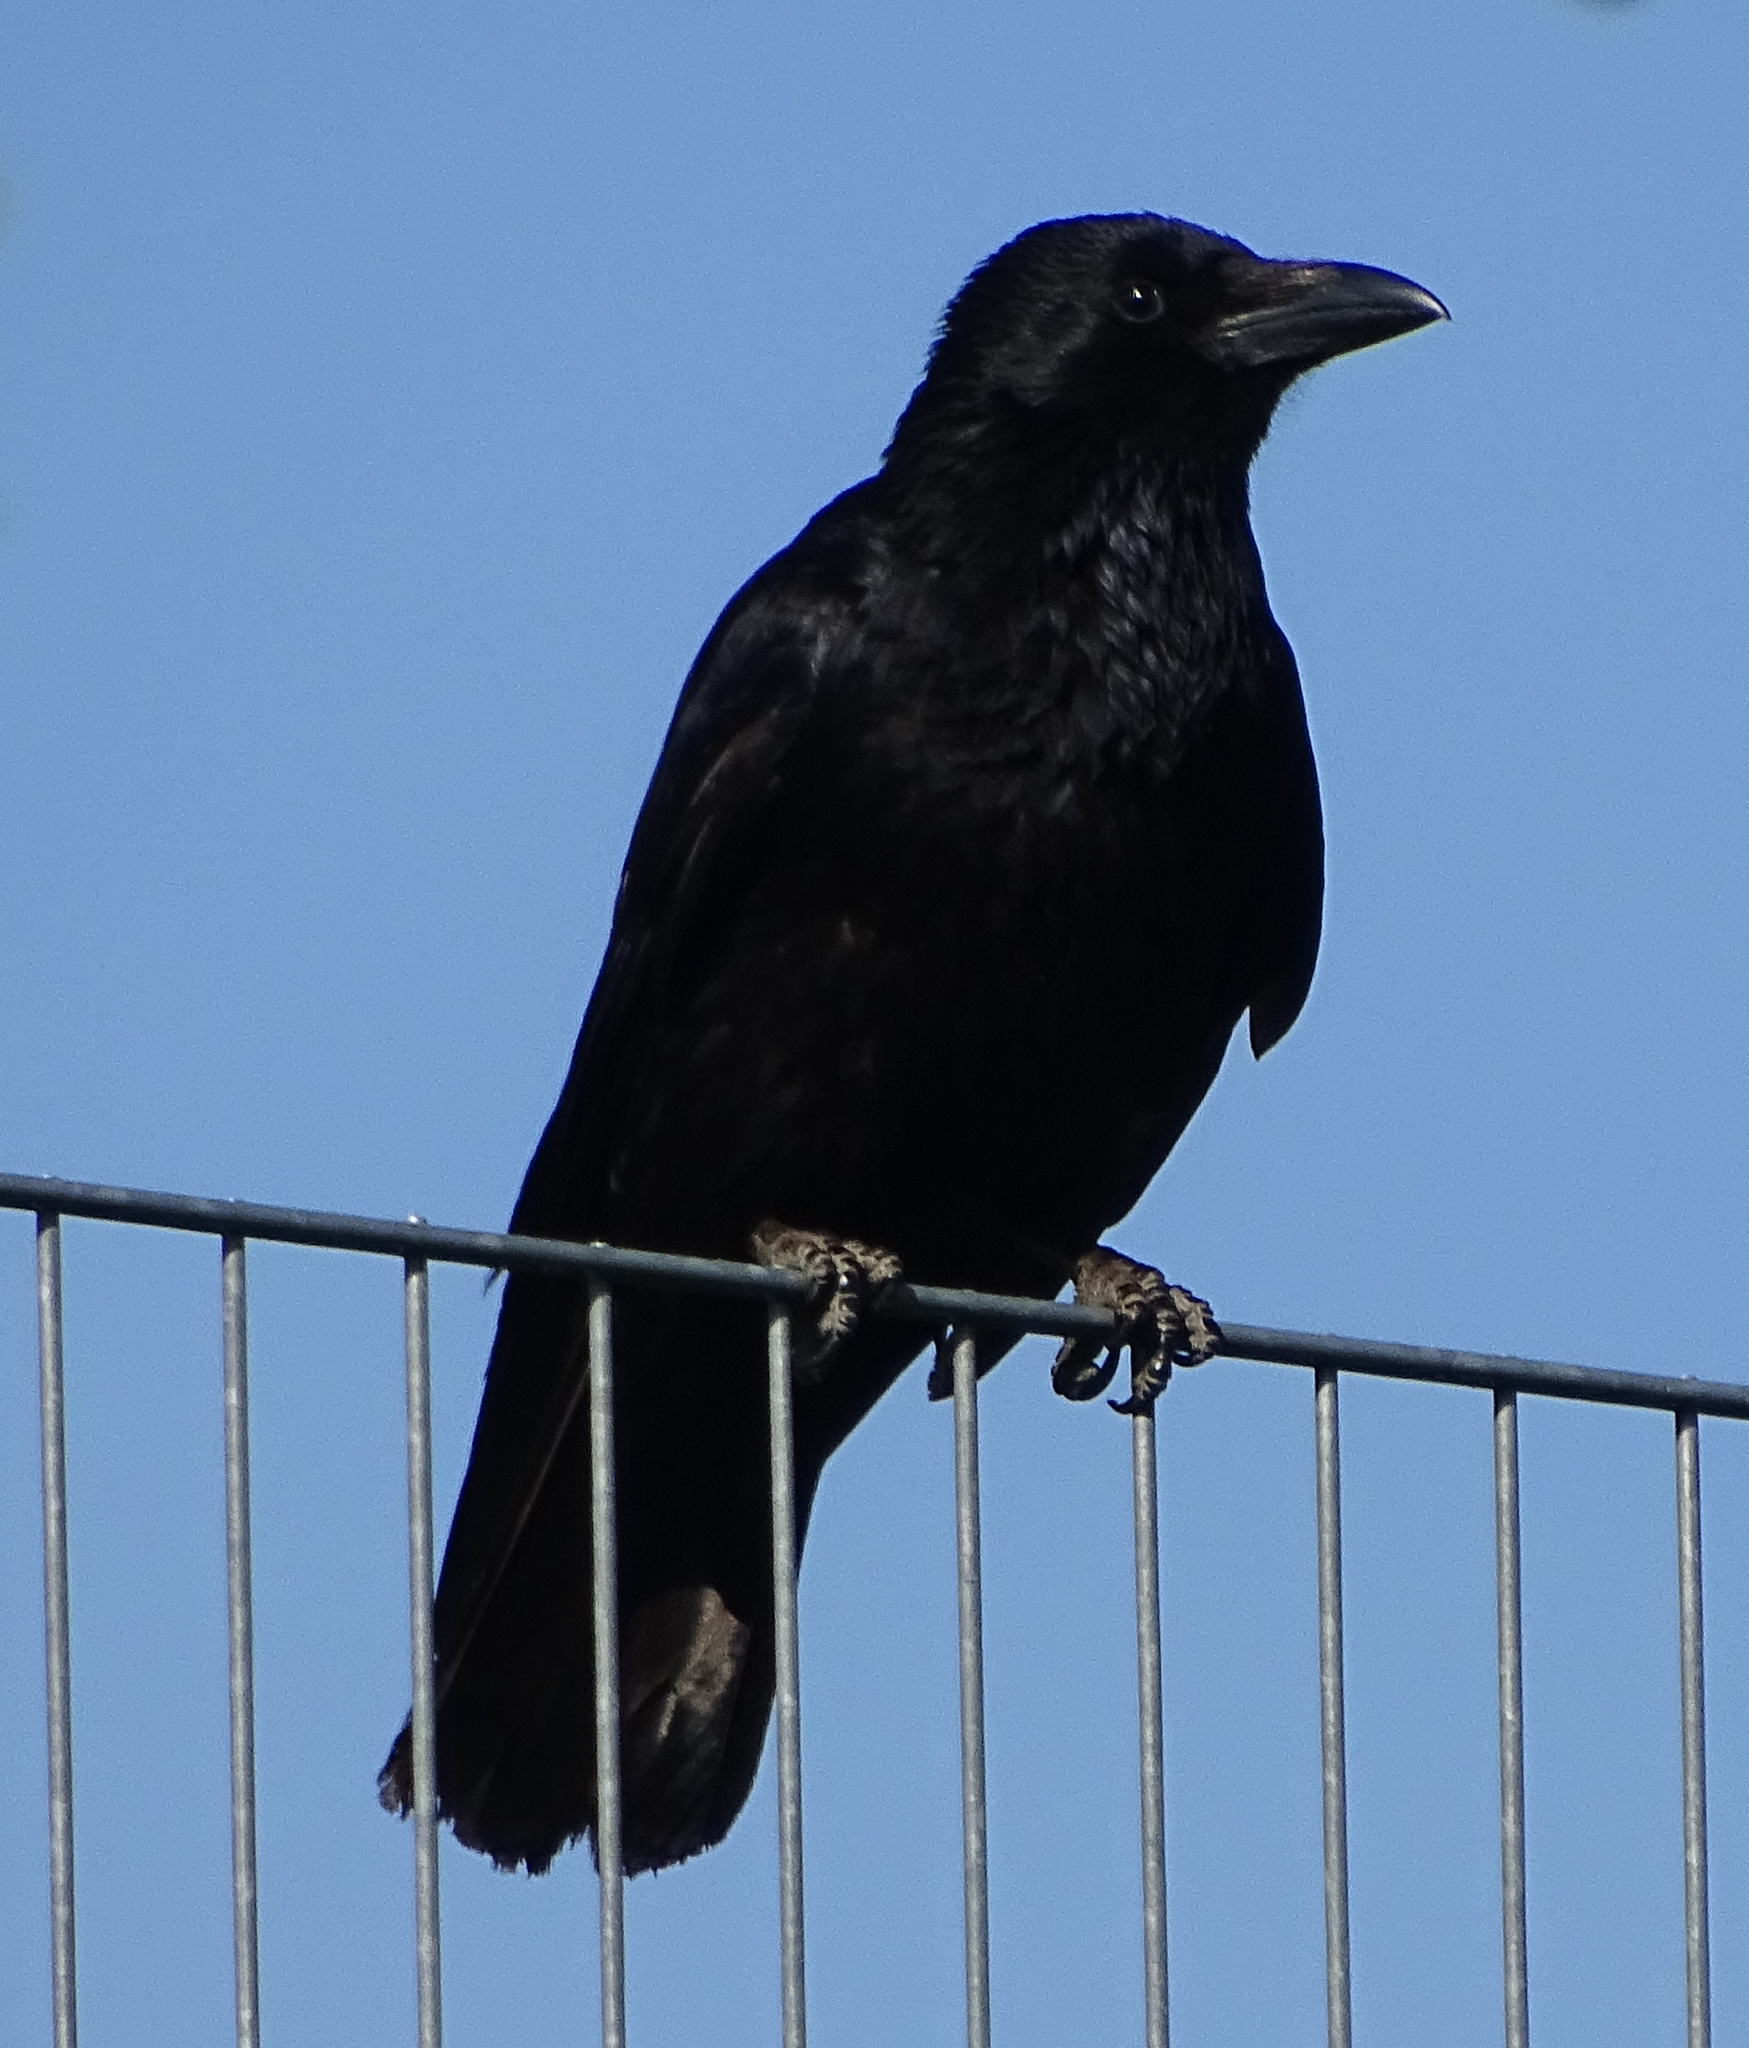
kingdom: Animalia
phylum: Chordata
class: Aves
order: Passeriformes
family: Corvidae
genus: Corvus
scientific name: Corvus corone
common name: Carrion crow
